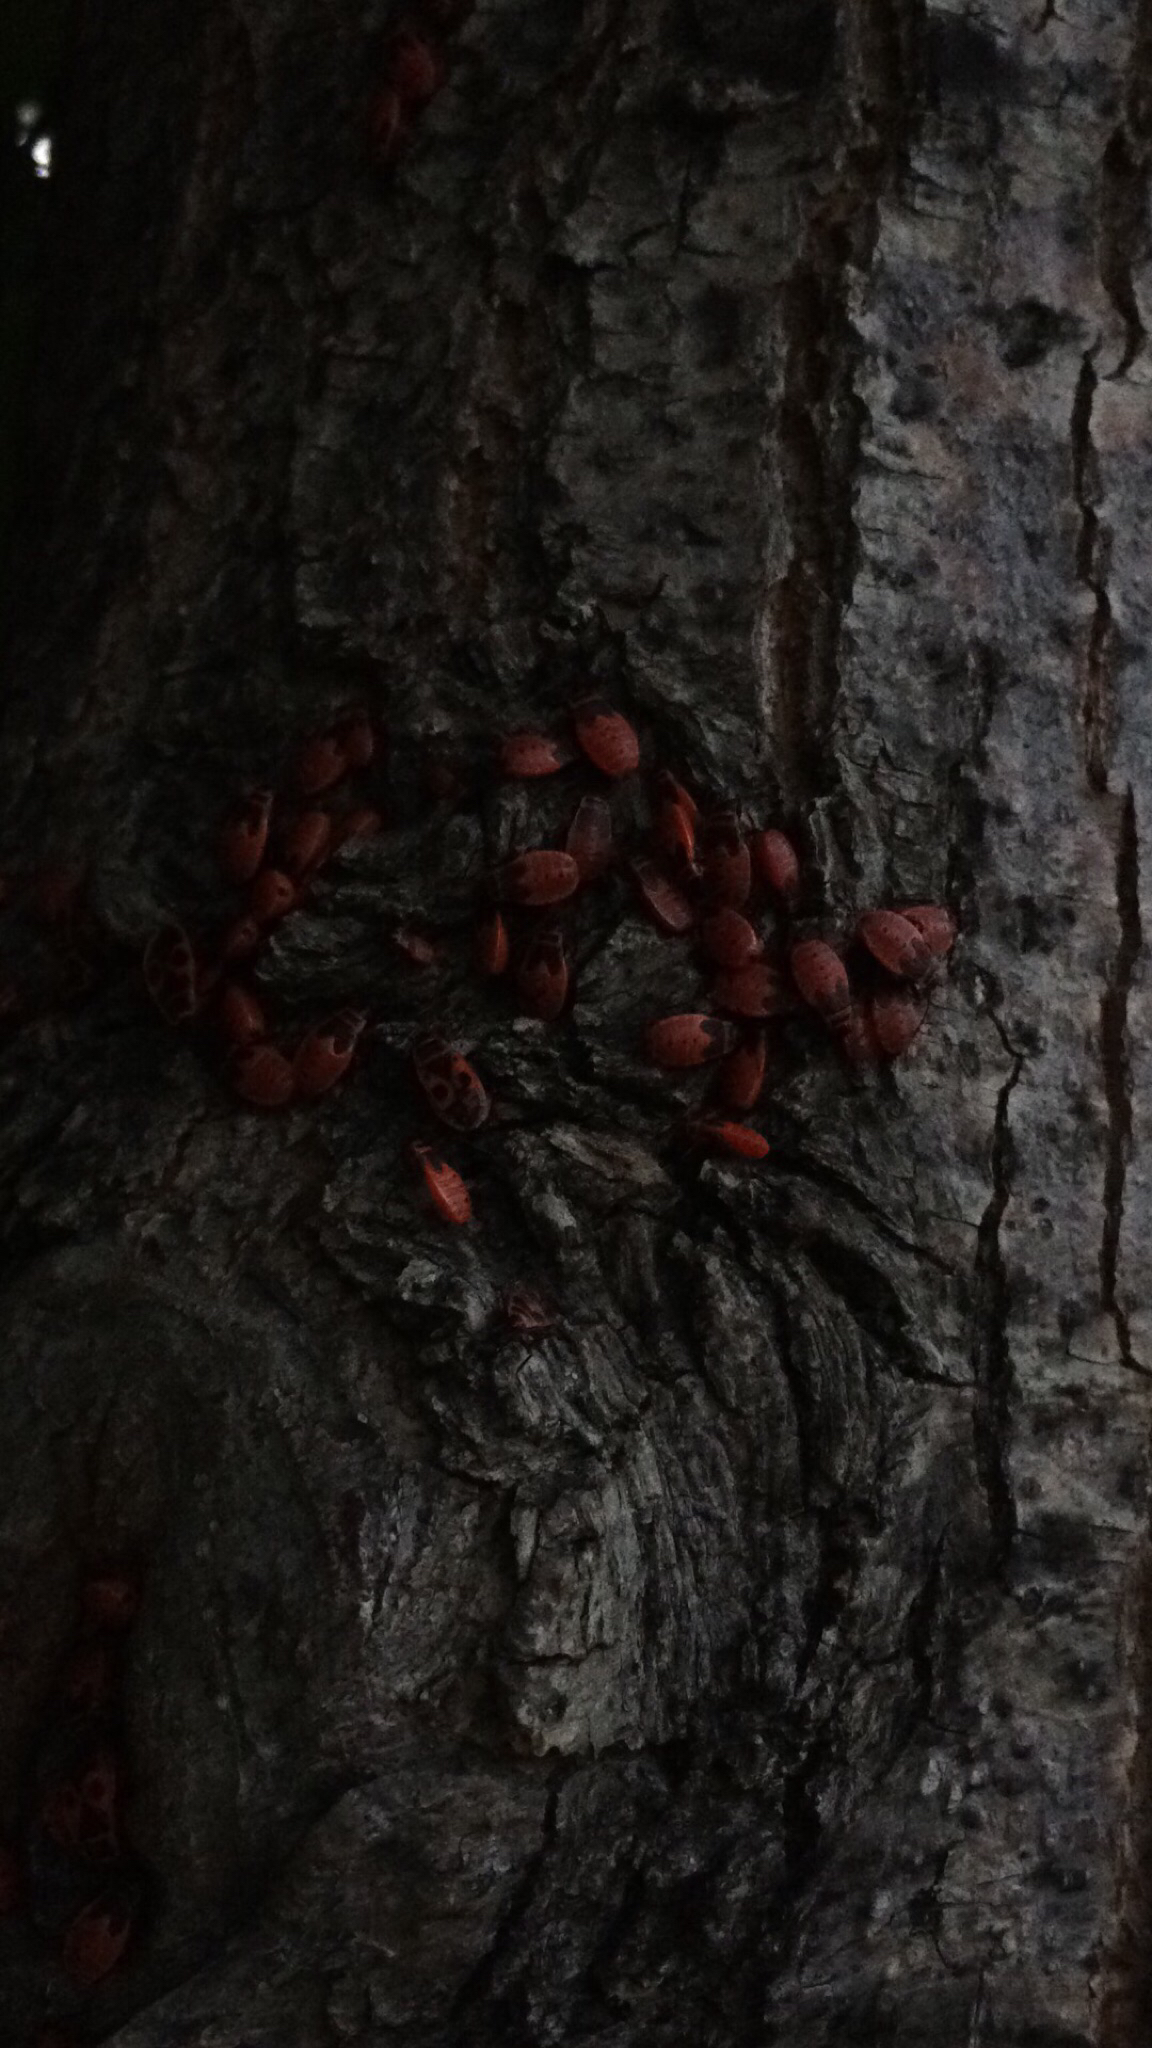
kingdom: Animalia
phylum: Arthropoda
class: Insecta
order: Hemiptera
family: Pyrrhocoridae
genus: Pyrrhocoris
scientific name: Pyrrhocoris apterus
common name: Firebug
